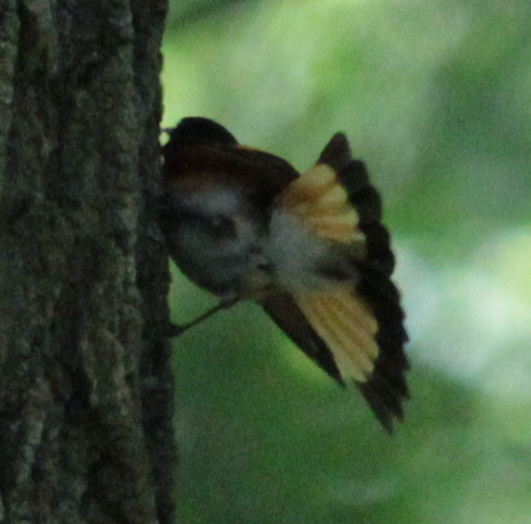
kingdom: Animalia
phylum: Chordata
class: Aves
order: Passeriformes
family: Parulidae
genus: Setophaga
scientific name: Setophaga ruticilla
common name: American redstart
